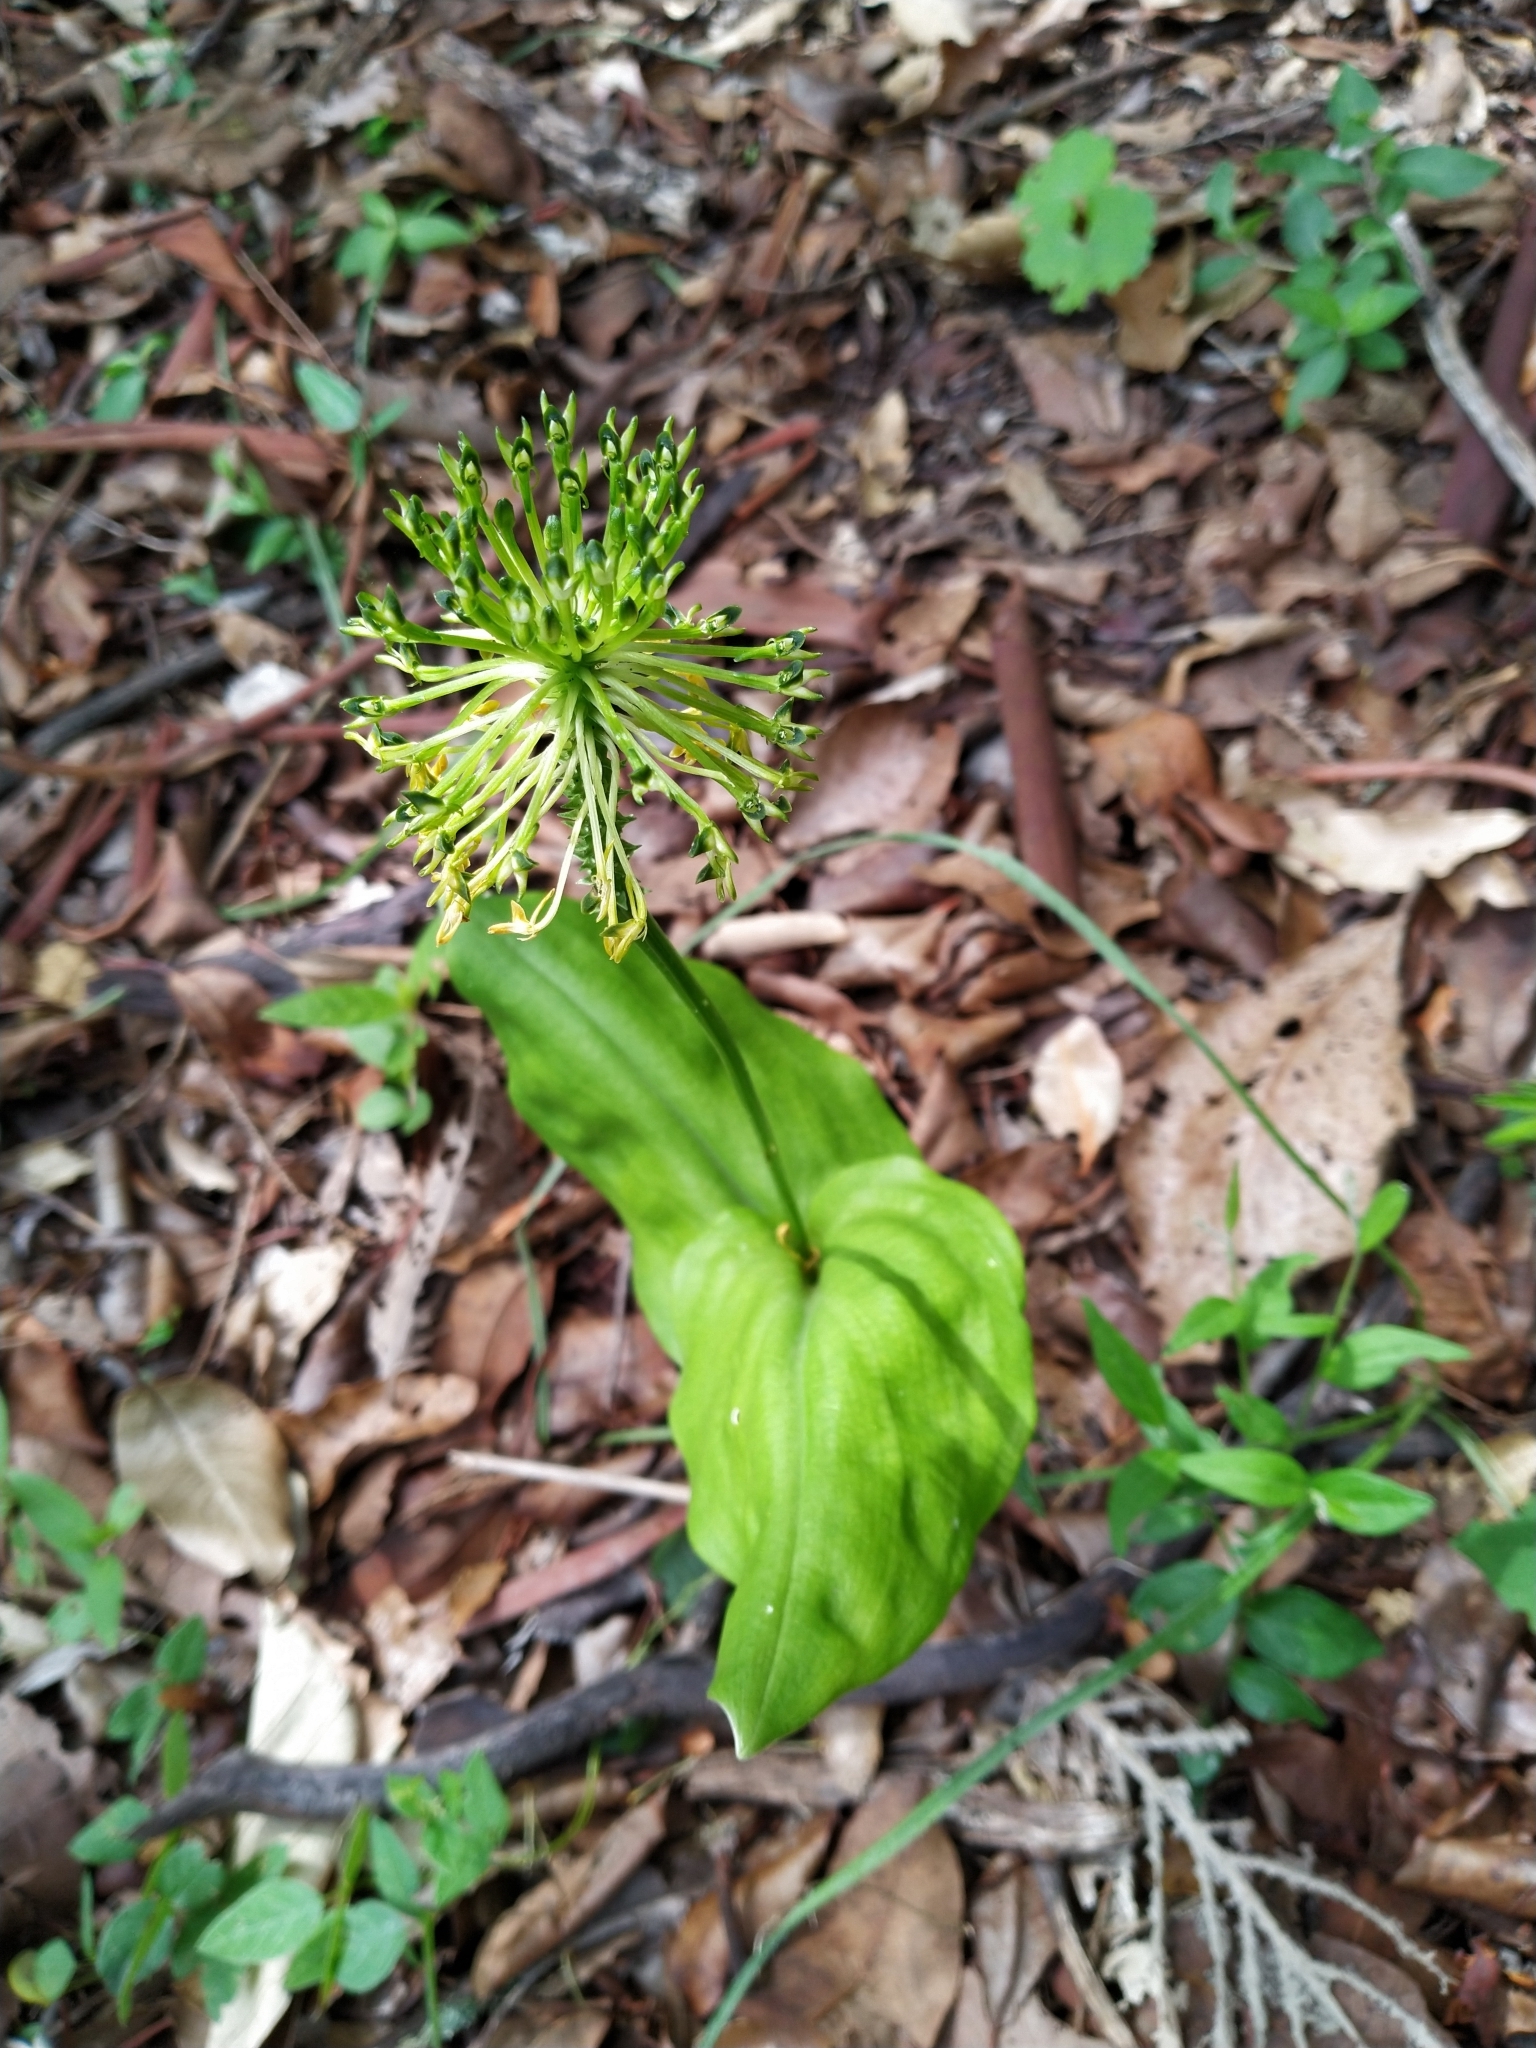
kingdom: Plantae
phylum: Tracheophyta
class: Liliopsida
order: Asparagales
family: Orchidaceae
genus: Malaxis
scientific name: Malaxis brachyrrhynchos
